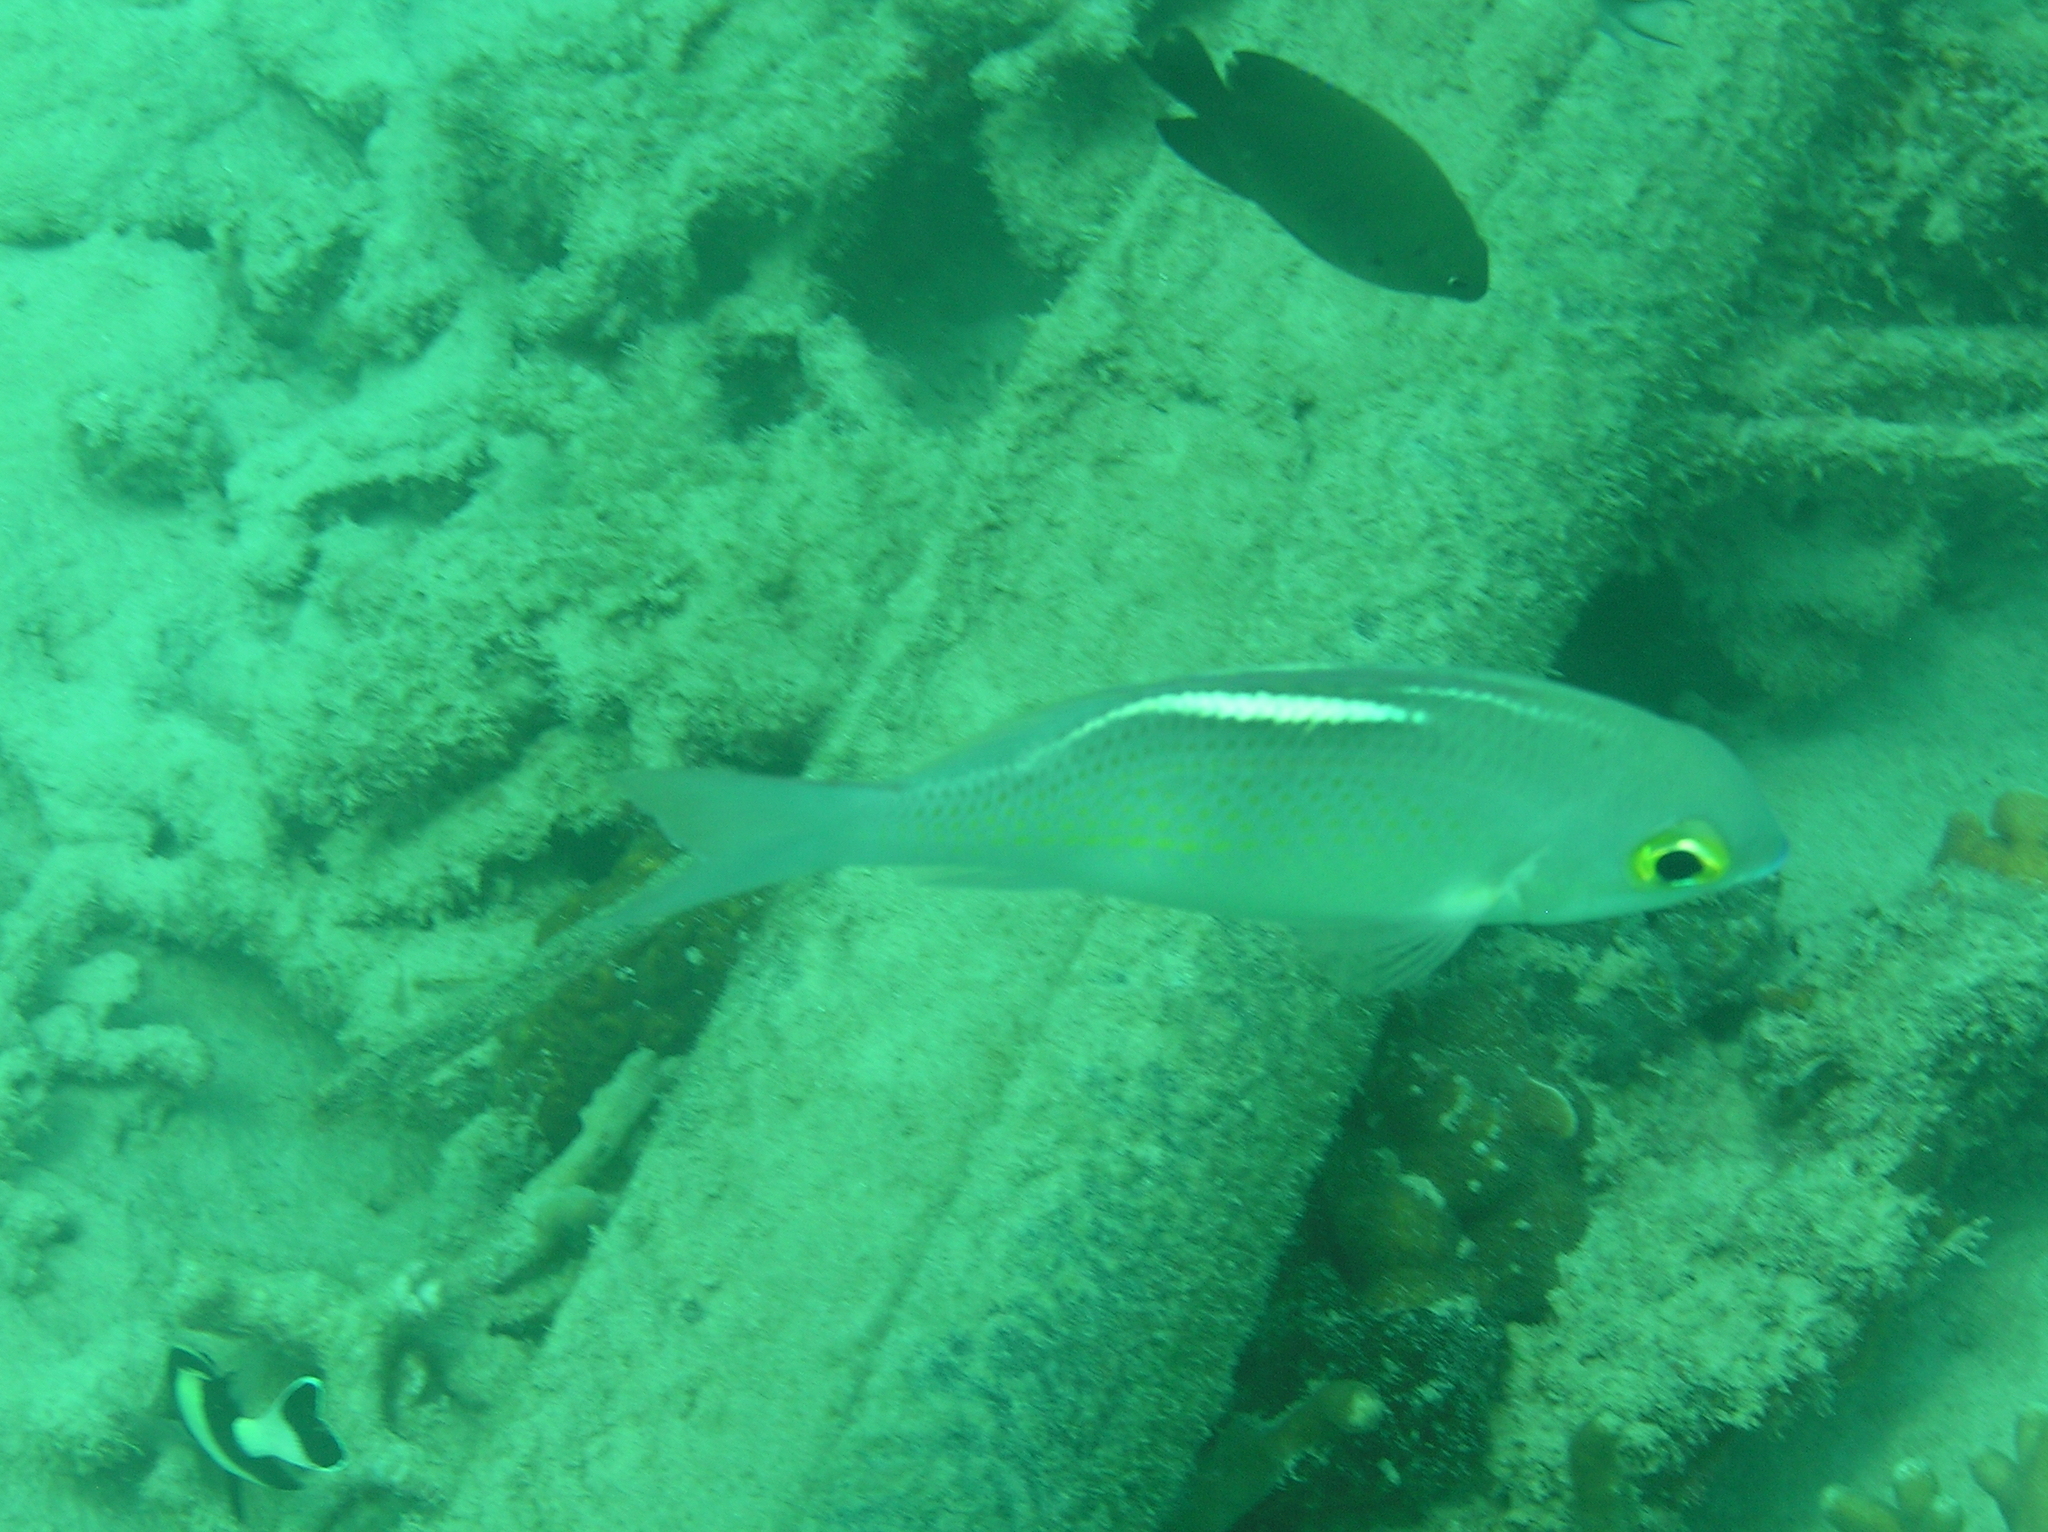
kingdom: Animalia
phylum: Chordata
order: Perciformes
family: Nemipteridae
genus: Scolopsis
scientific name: Scolopsis ciliata
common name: Ciliate spinecheek
